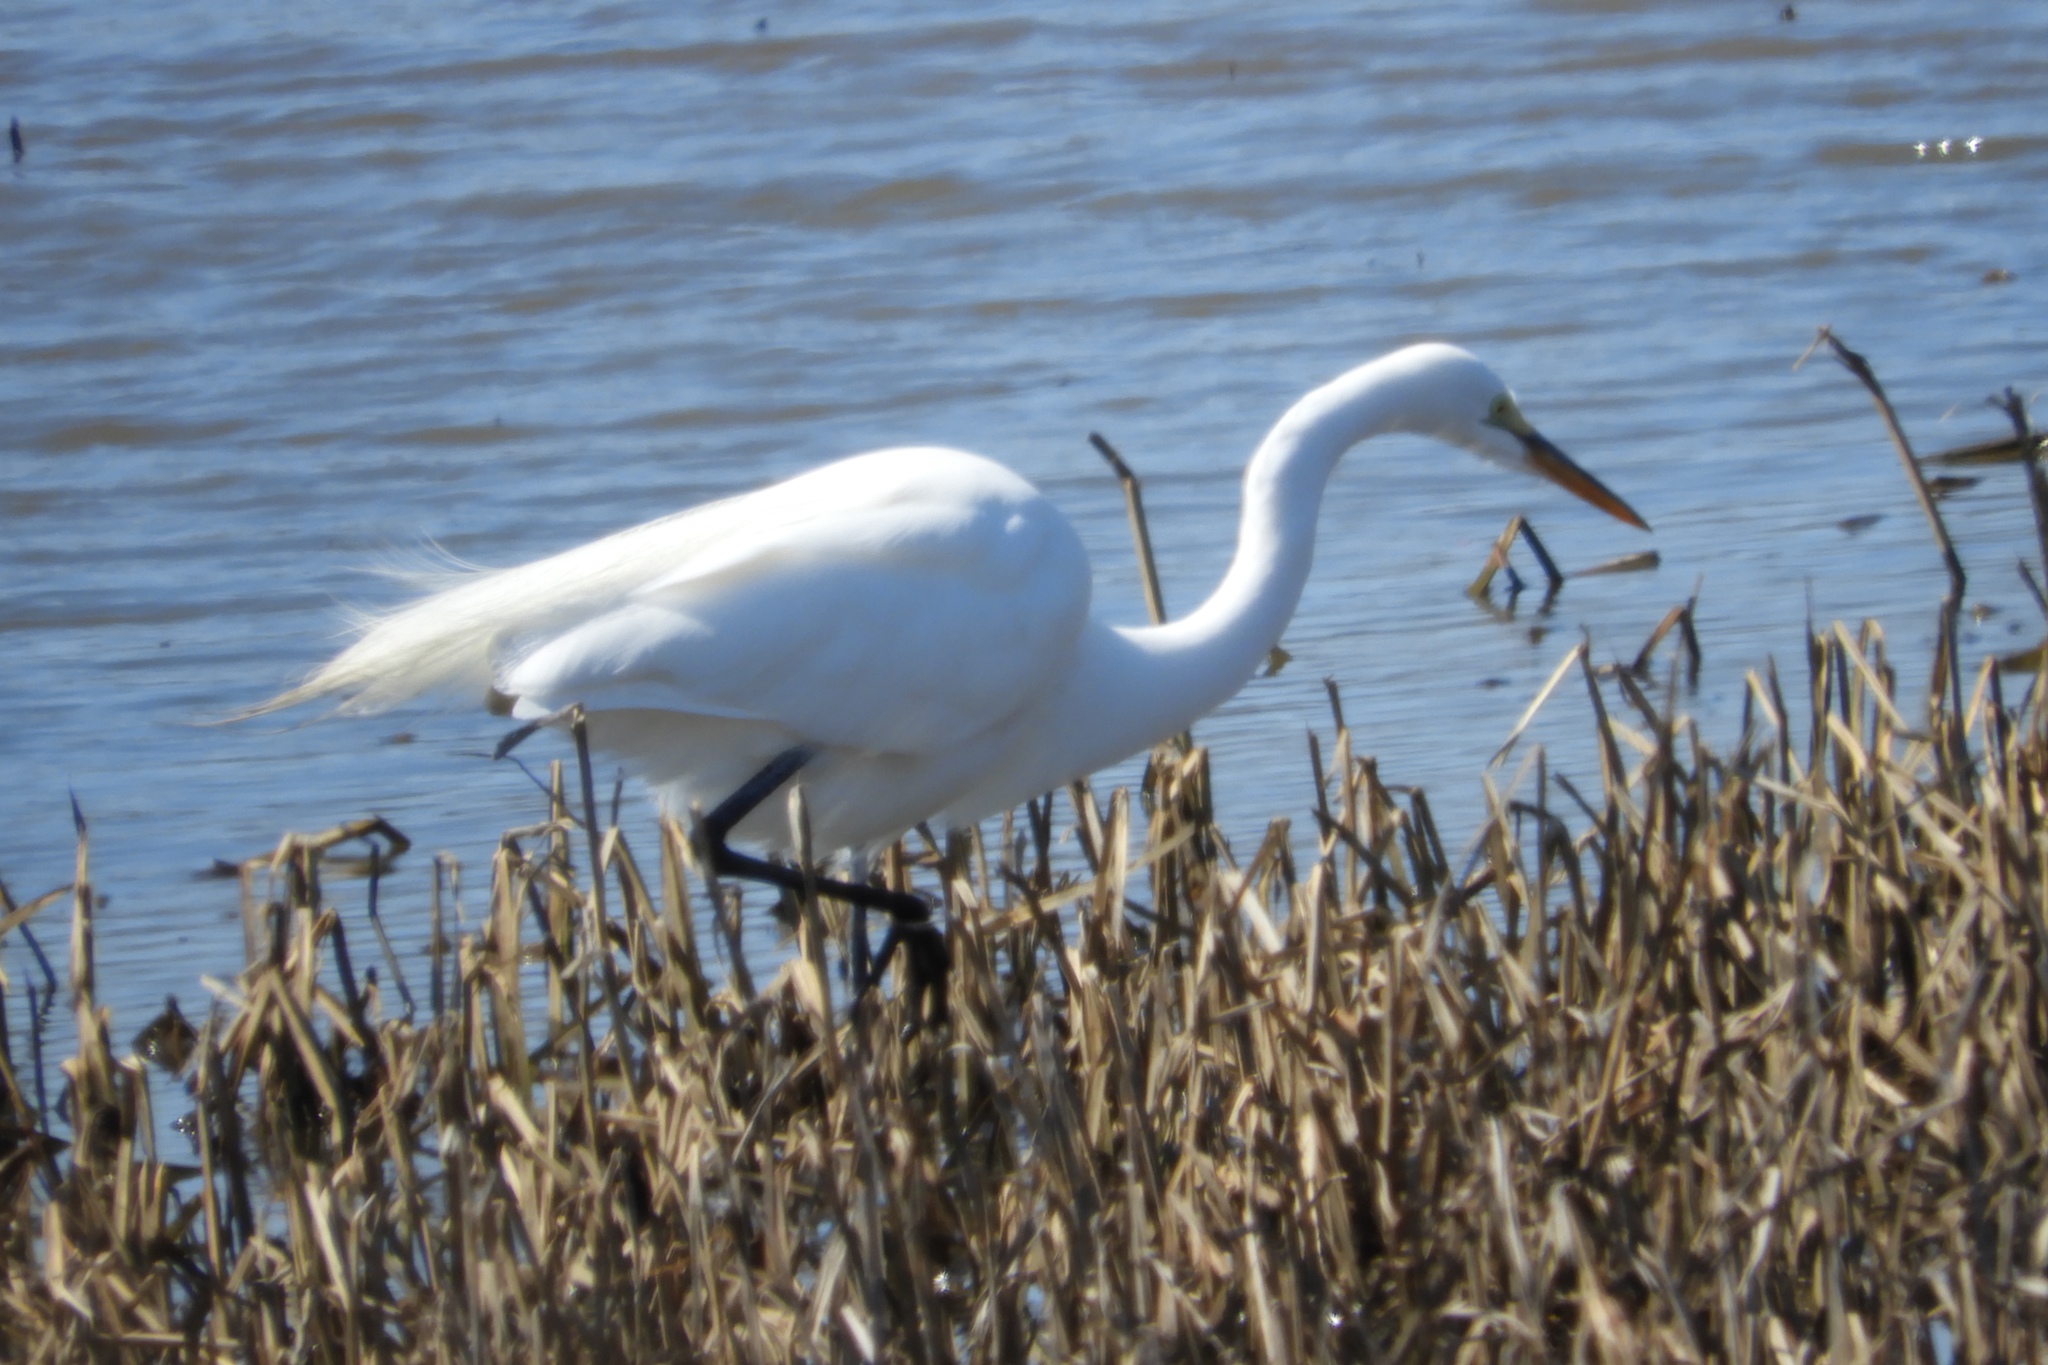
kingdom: Animalia
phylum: Chordata
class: Aves
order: Pelecaniformes
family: Ardeidae
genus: Ardea
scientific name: Ardea alba
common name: Great egret
